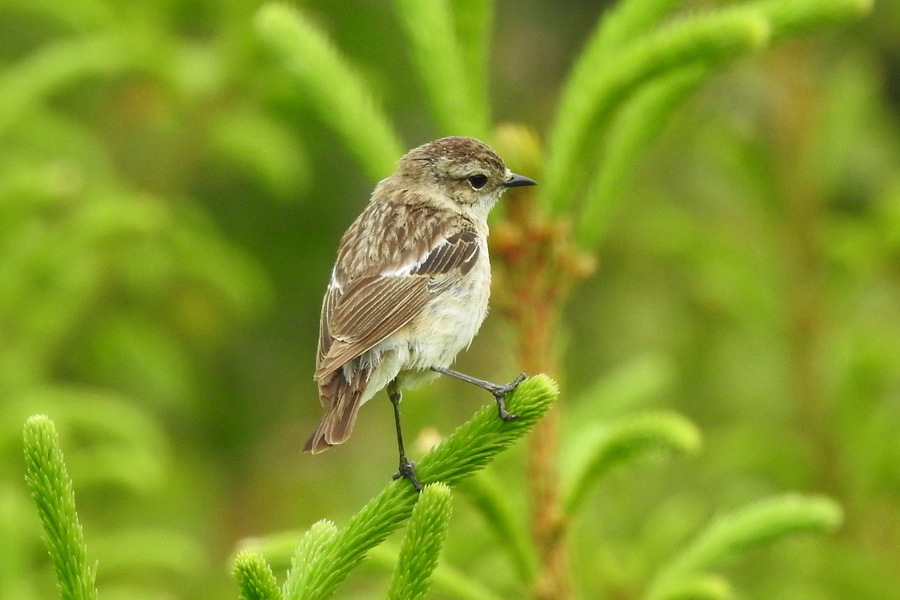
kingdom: Animalia
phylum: Chordata
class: Aves
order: Passeriformes
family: Muscicapidae
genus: Saxicola
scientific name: Saxicola maurus
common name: Siberian stonechat
